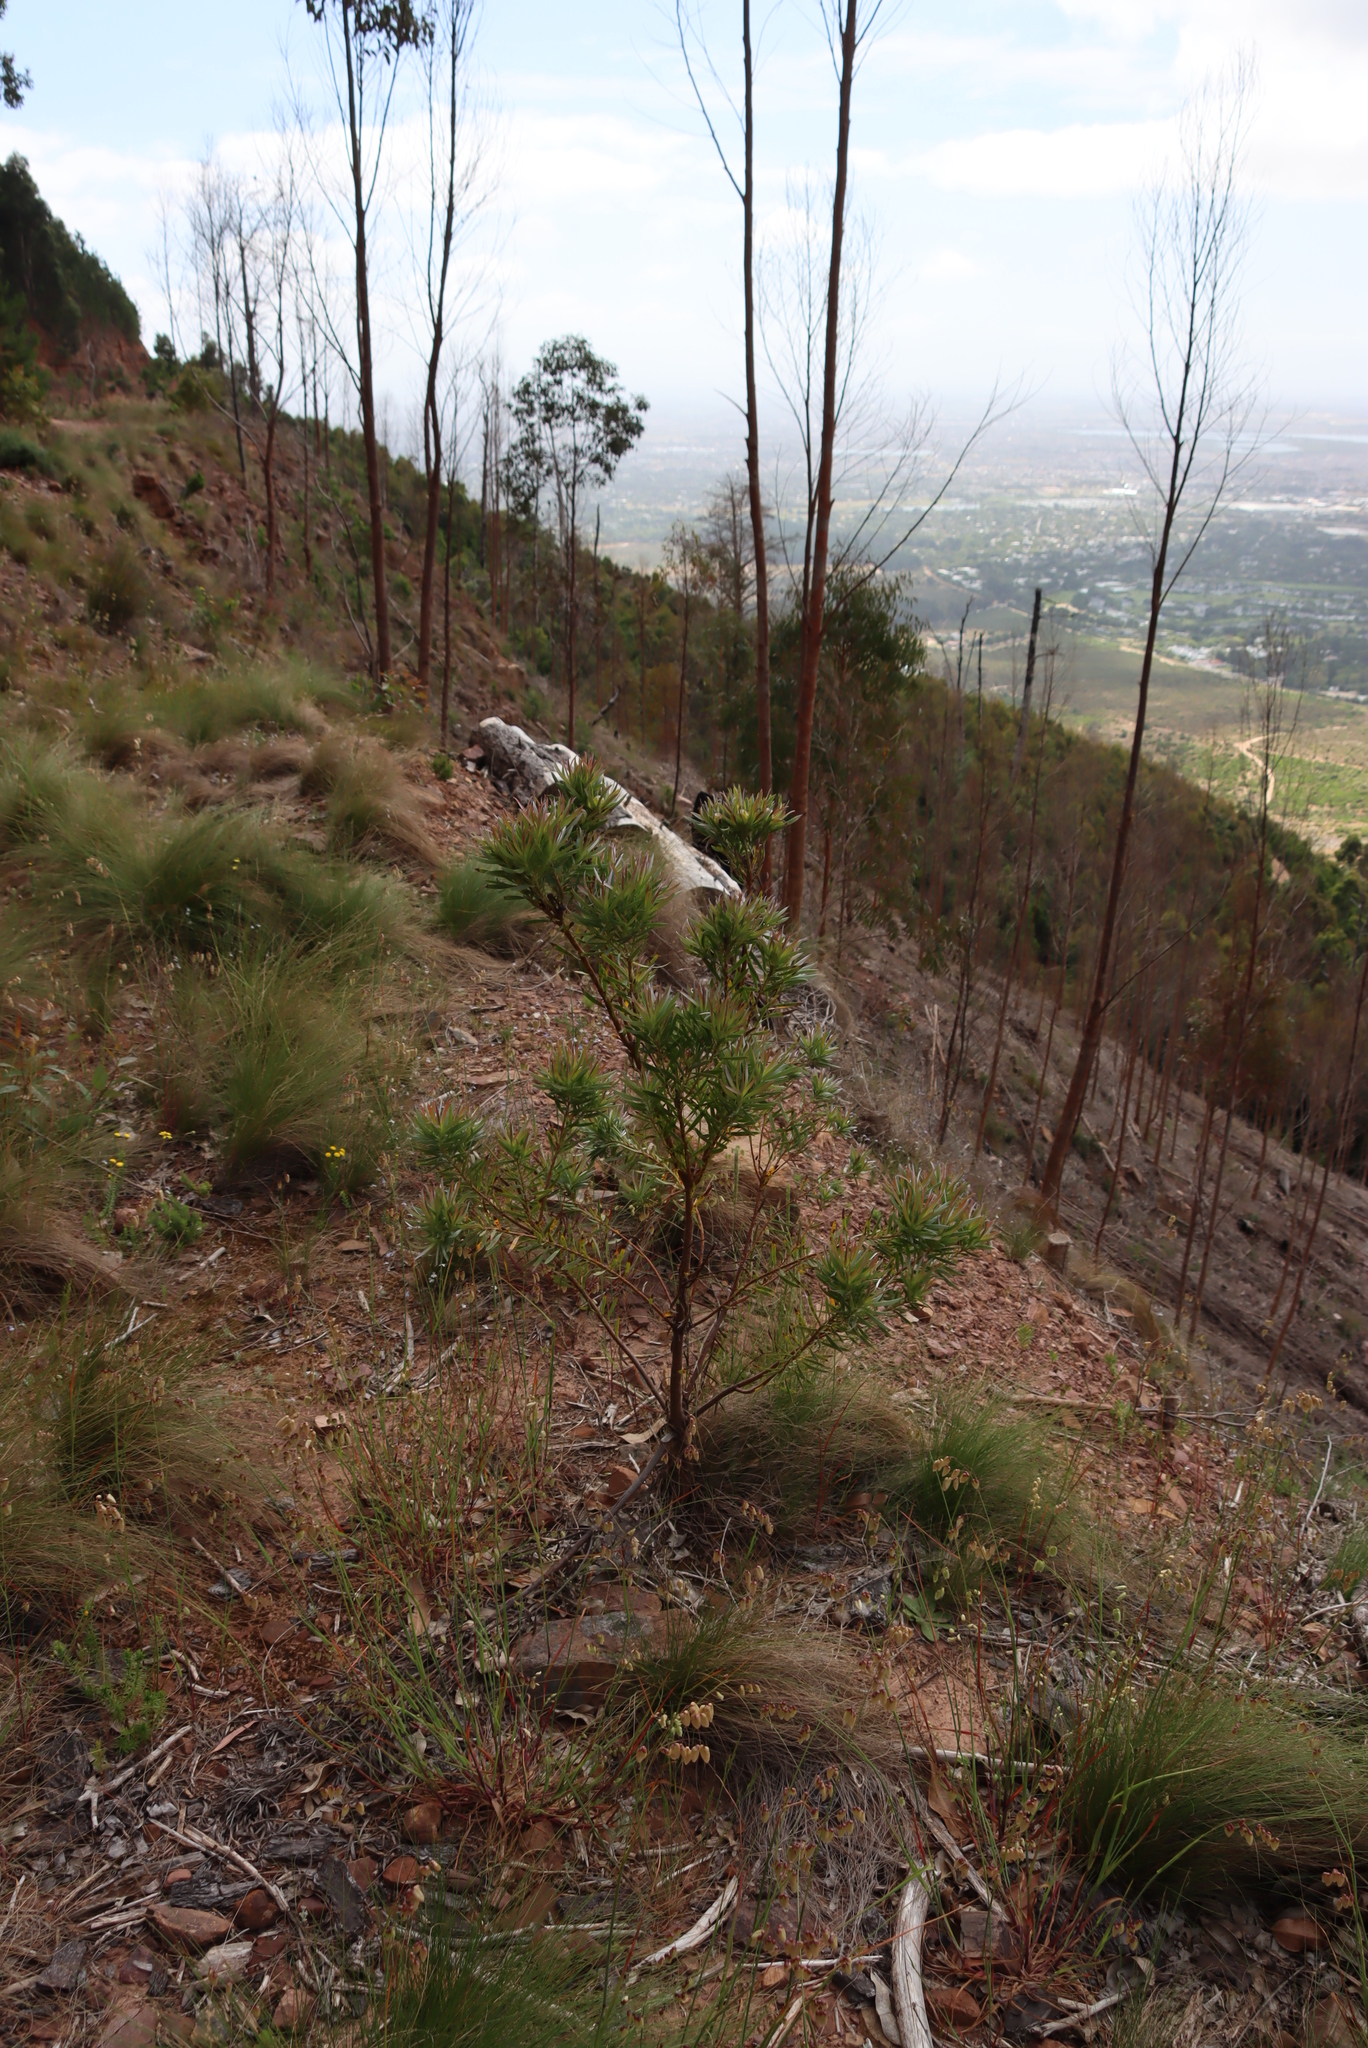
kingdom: Plantae
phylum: Tracheophyta
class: Magnoliopsida
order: Proteales
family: Proteaceae
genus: Protea
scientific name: Protea lepidocarpodendron
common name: Black-bearded protea
